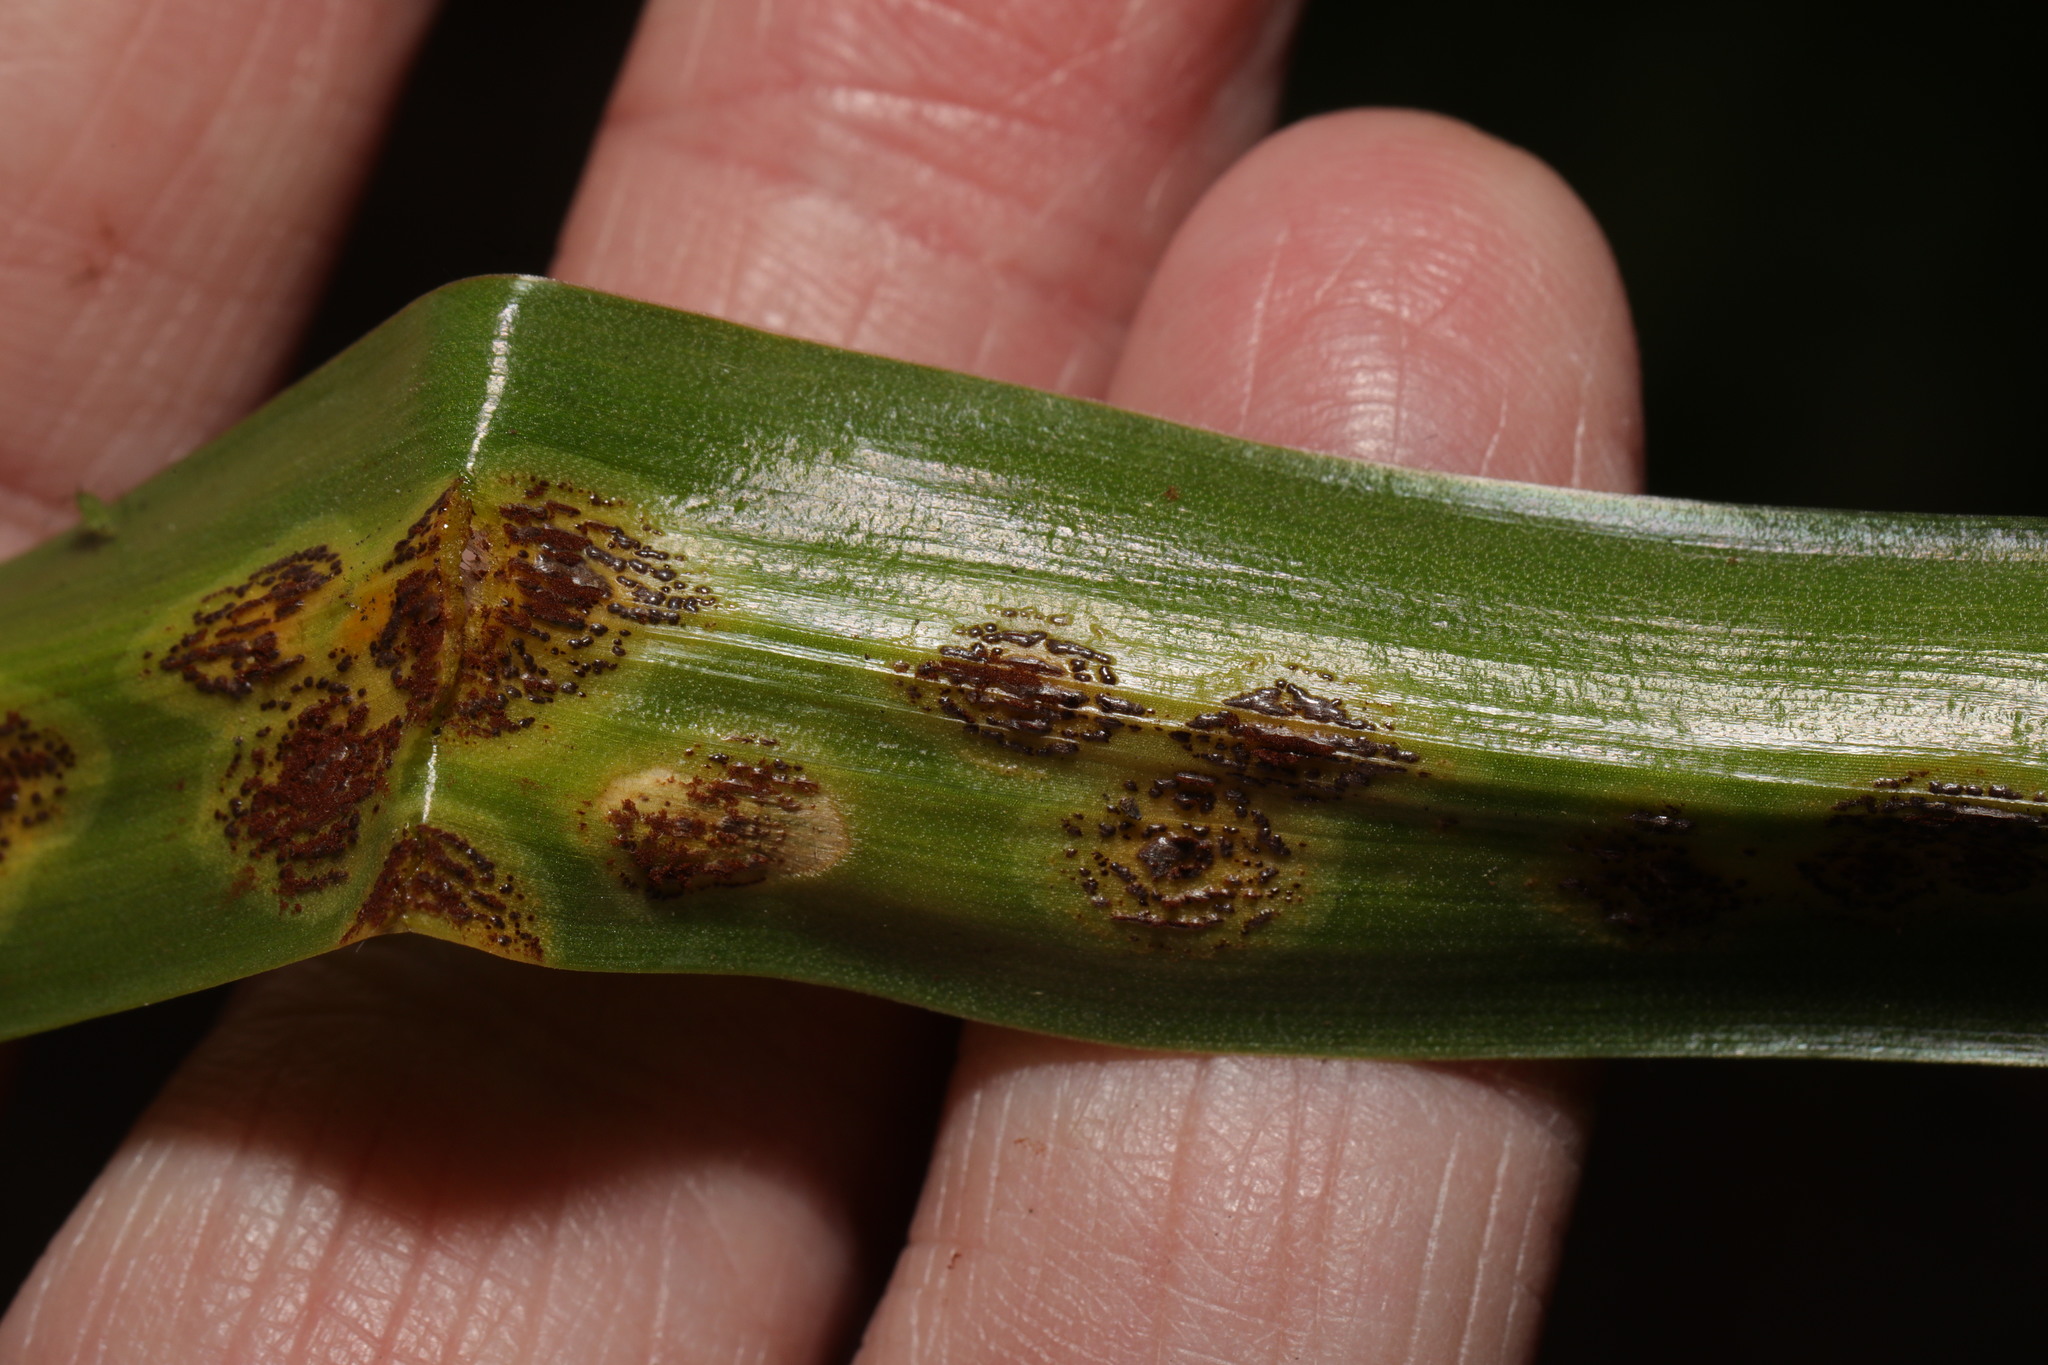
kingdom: Fungi
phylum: Basidiomycota
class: Pucciniomycetes
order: Pucciniales
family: Pucciniaceae
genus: Uromyces
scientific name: Uromyces hyacinthi
